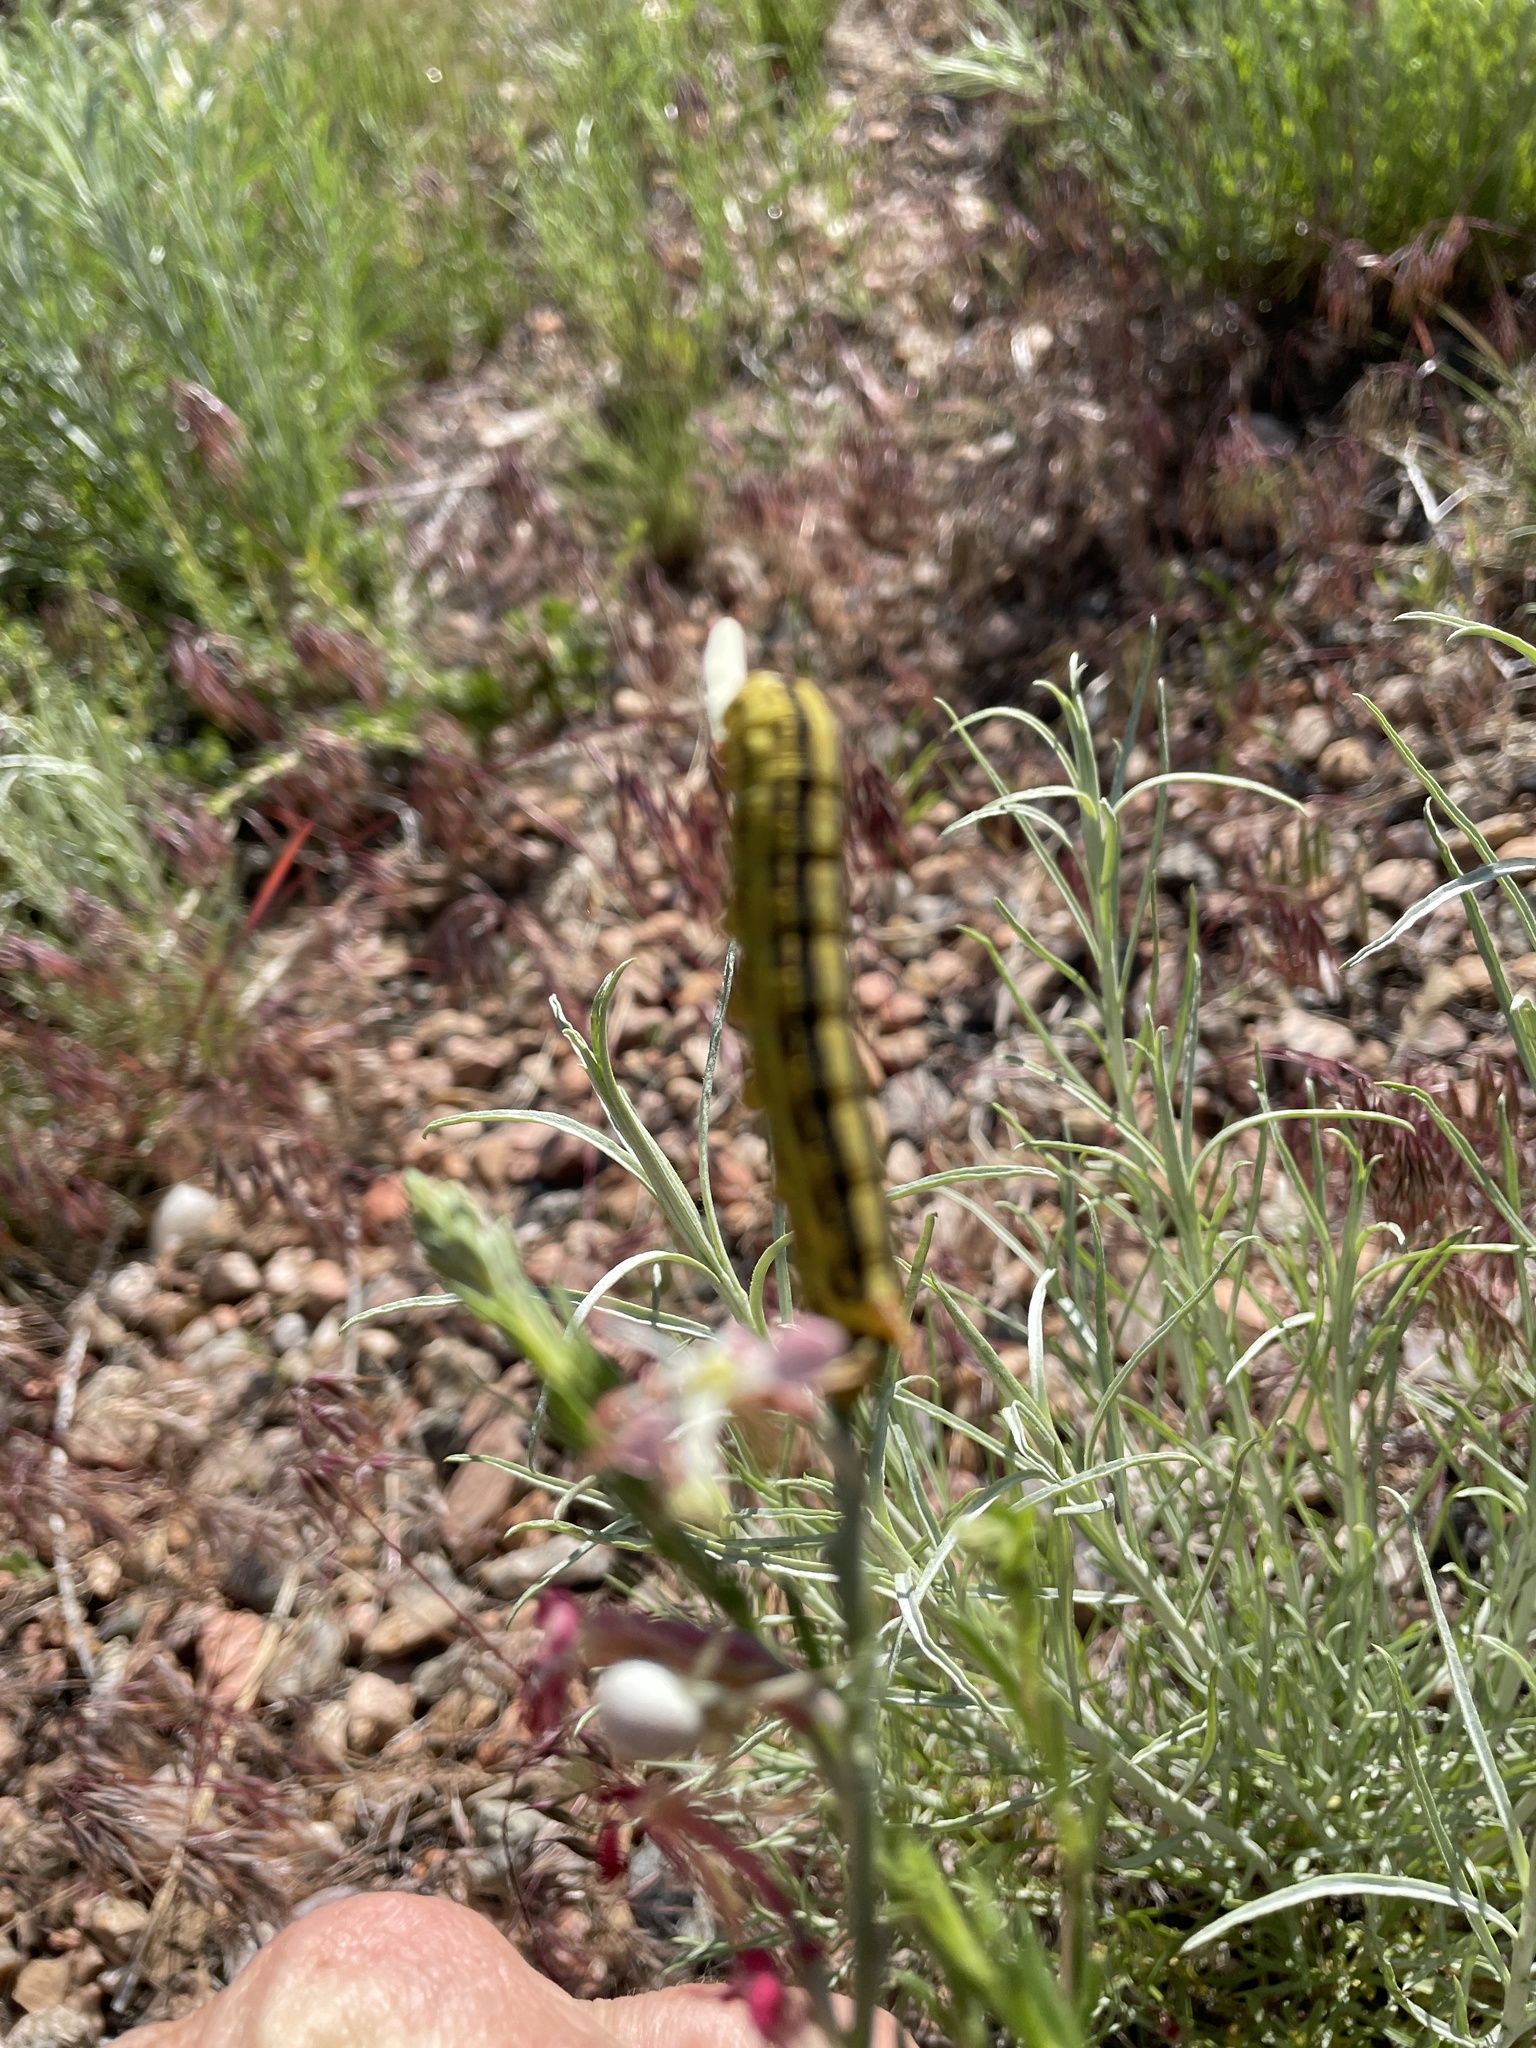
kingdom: Animalia
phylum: Arthropoda
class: Insecta
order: Lepidoptera
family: Sphingidae
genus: Hyles
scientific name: Hyles lineata
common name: White-lined sphinx
